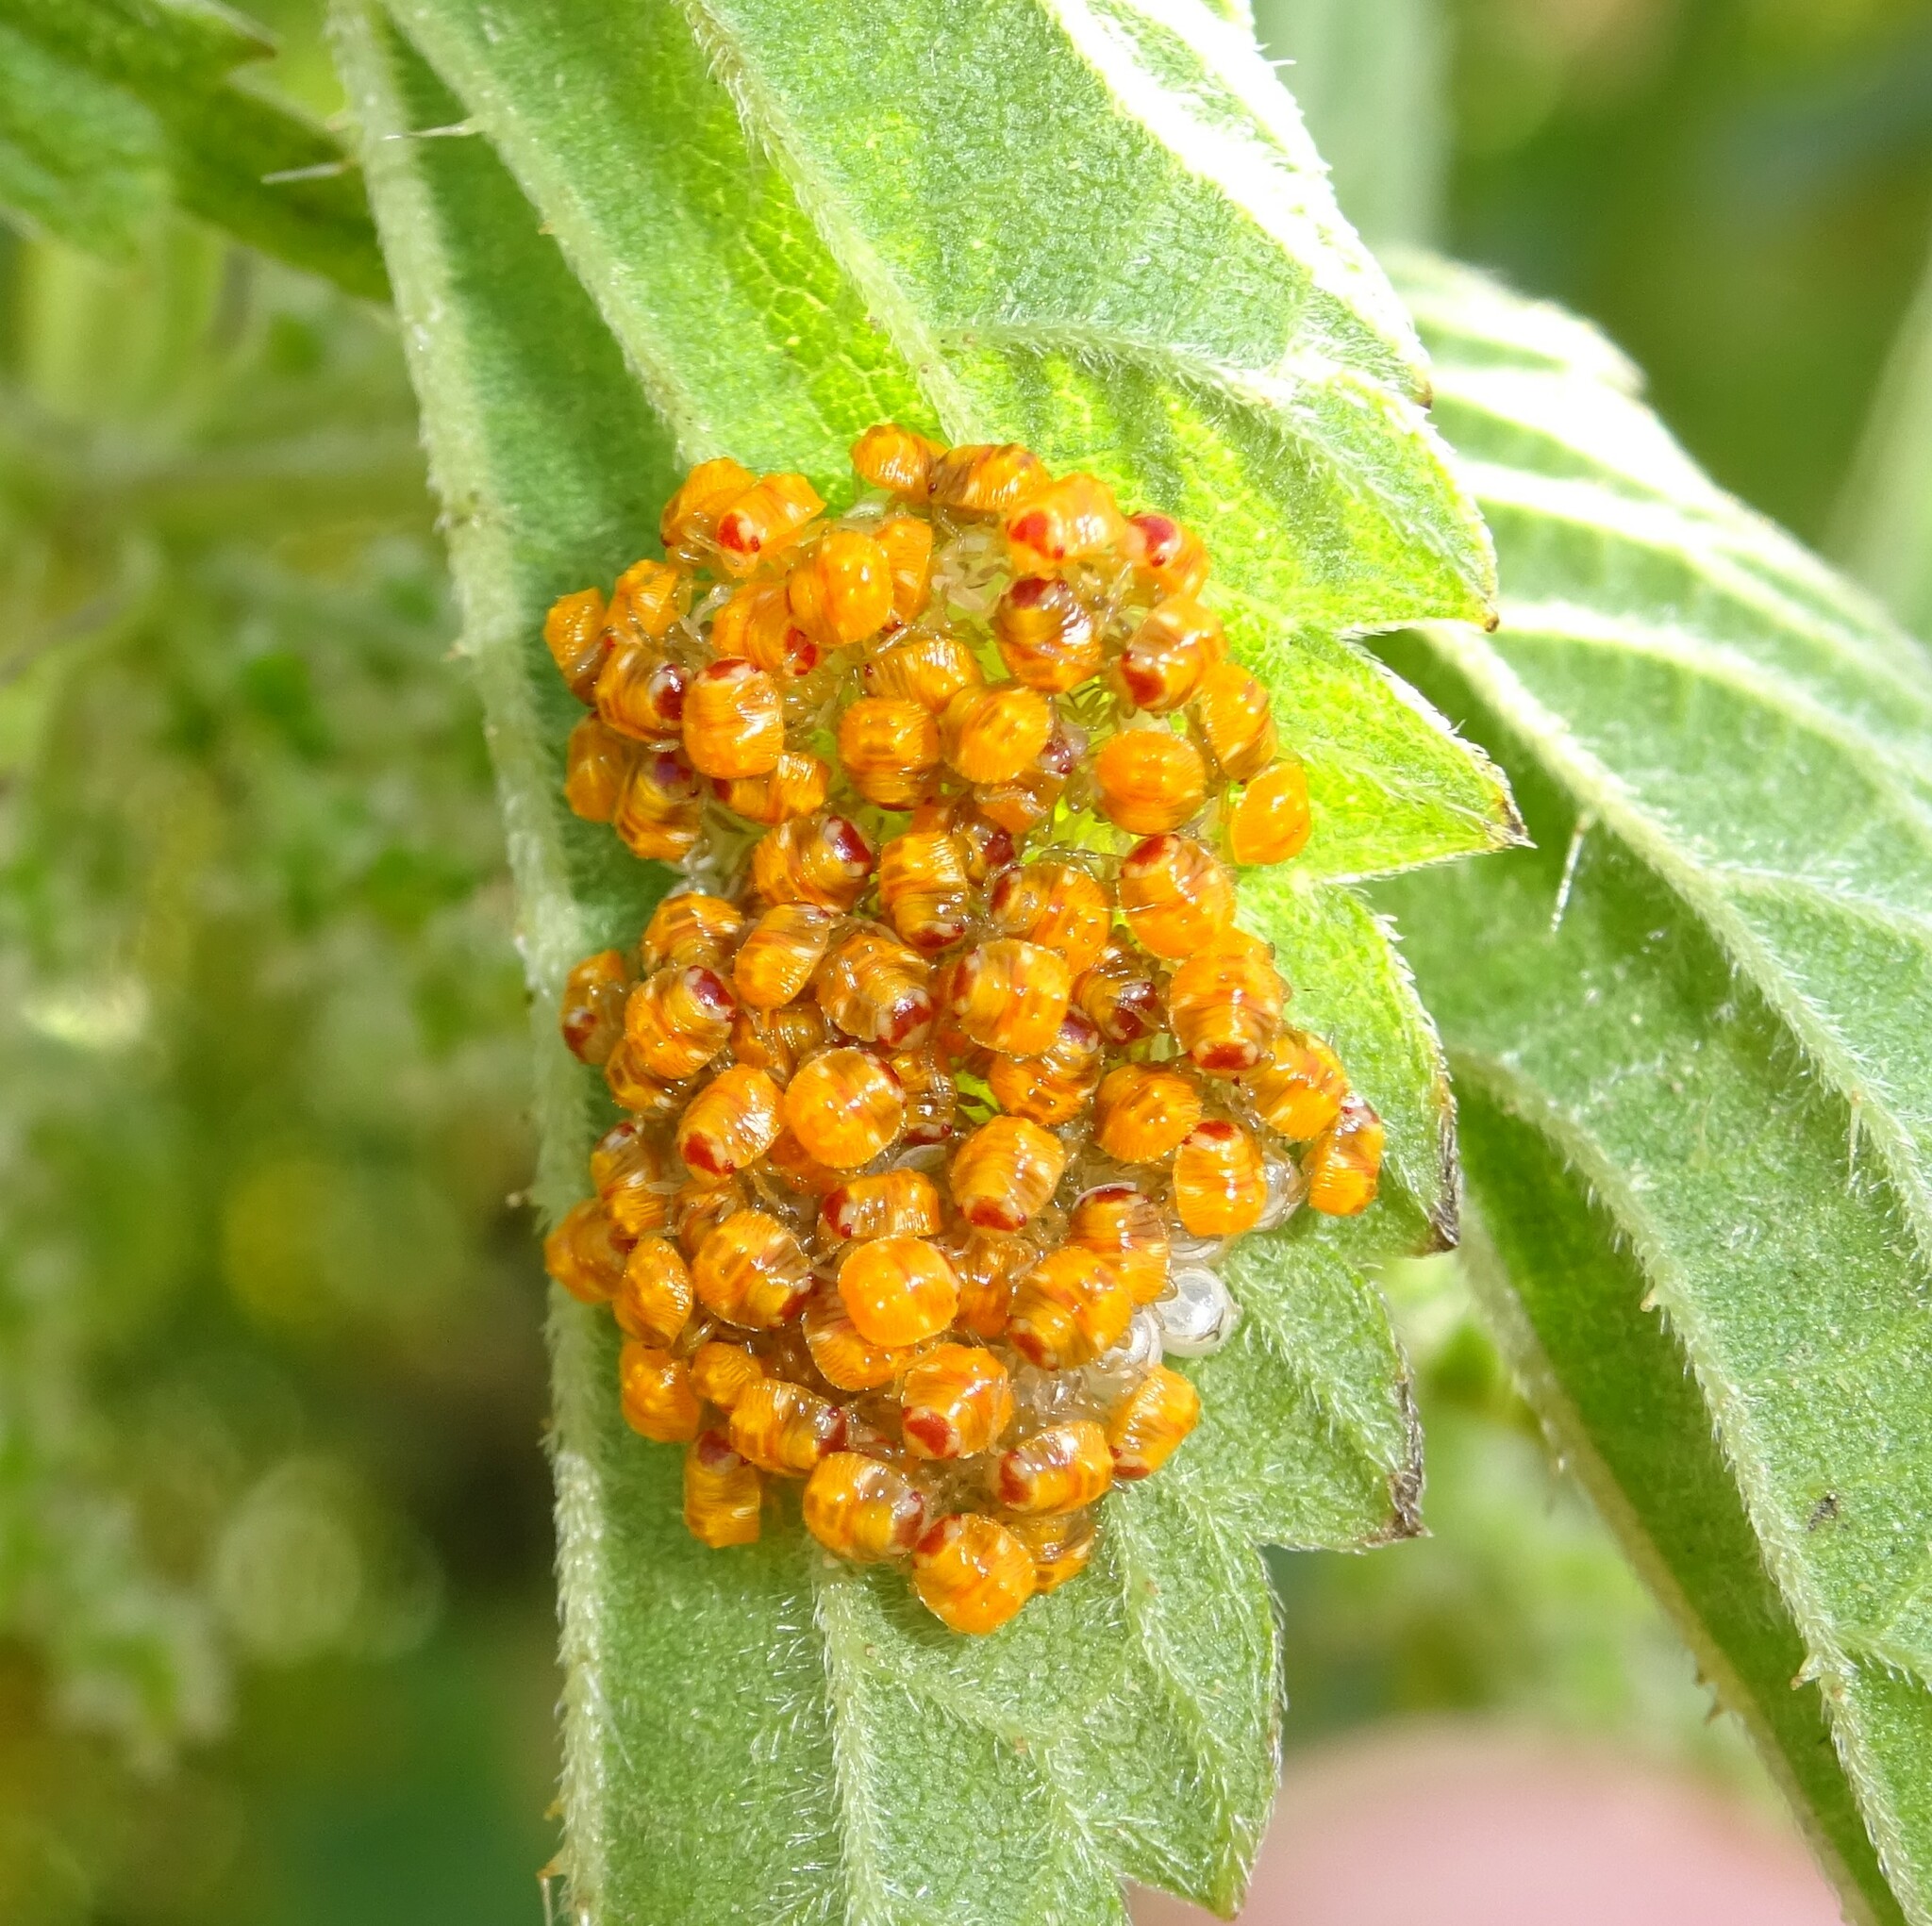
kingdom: Animalia
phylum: Arthropoda
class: Insecta
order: Hemiptera
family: Pentatomidae
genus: Nezara
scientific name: Nezara viridula
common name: Southern green stink bug
